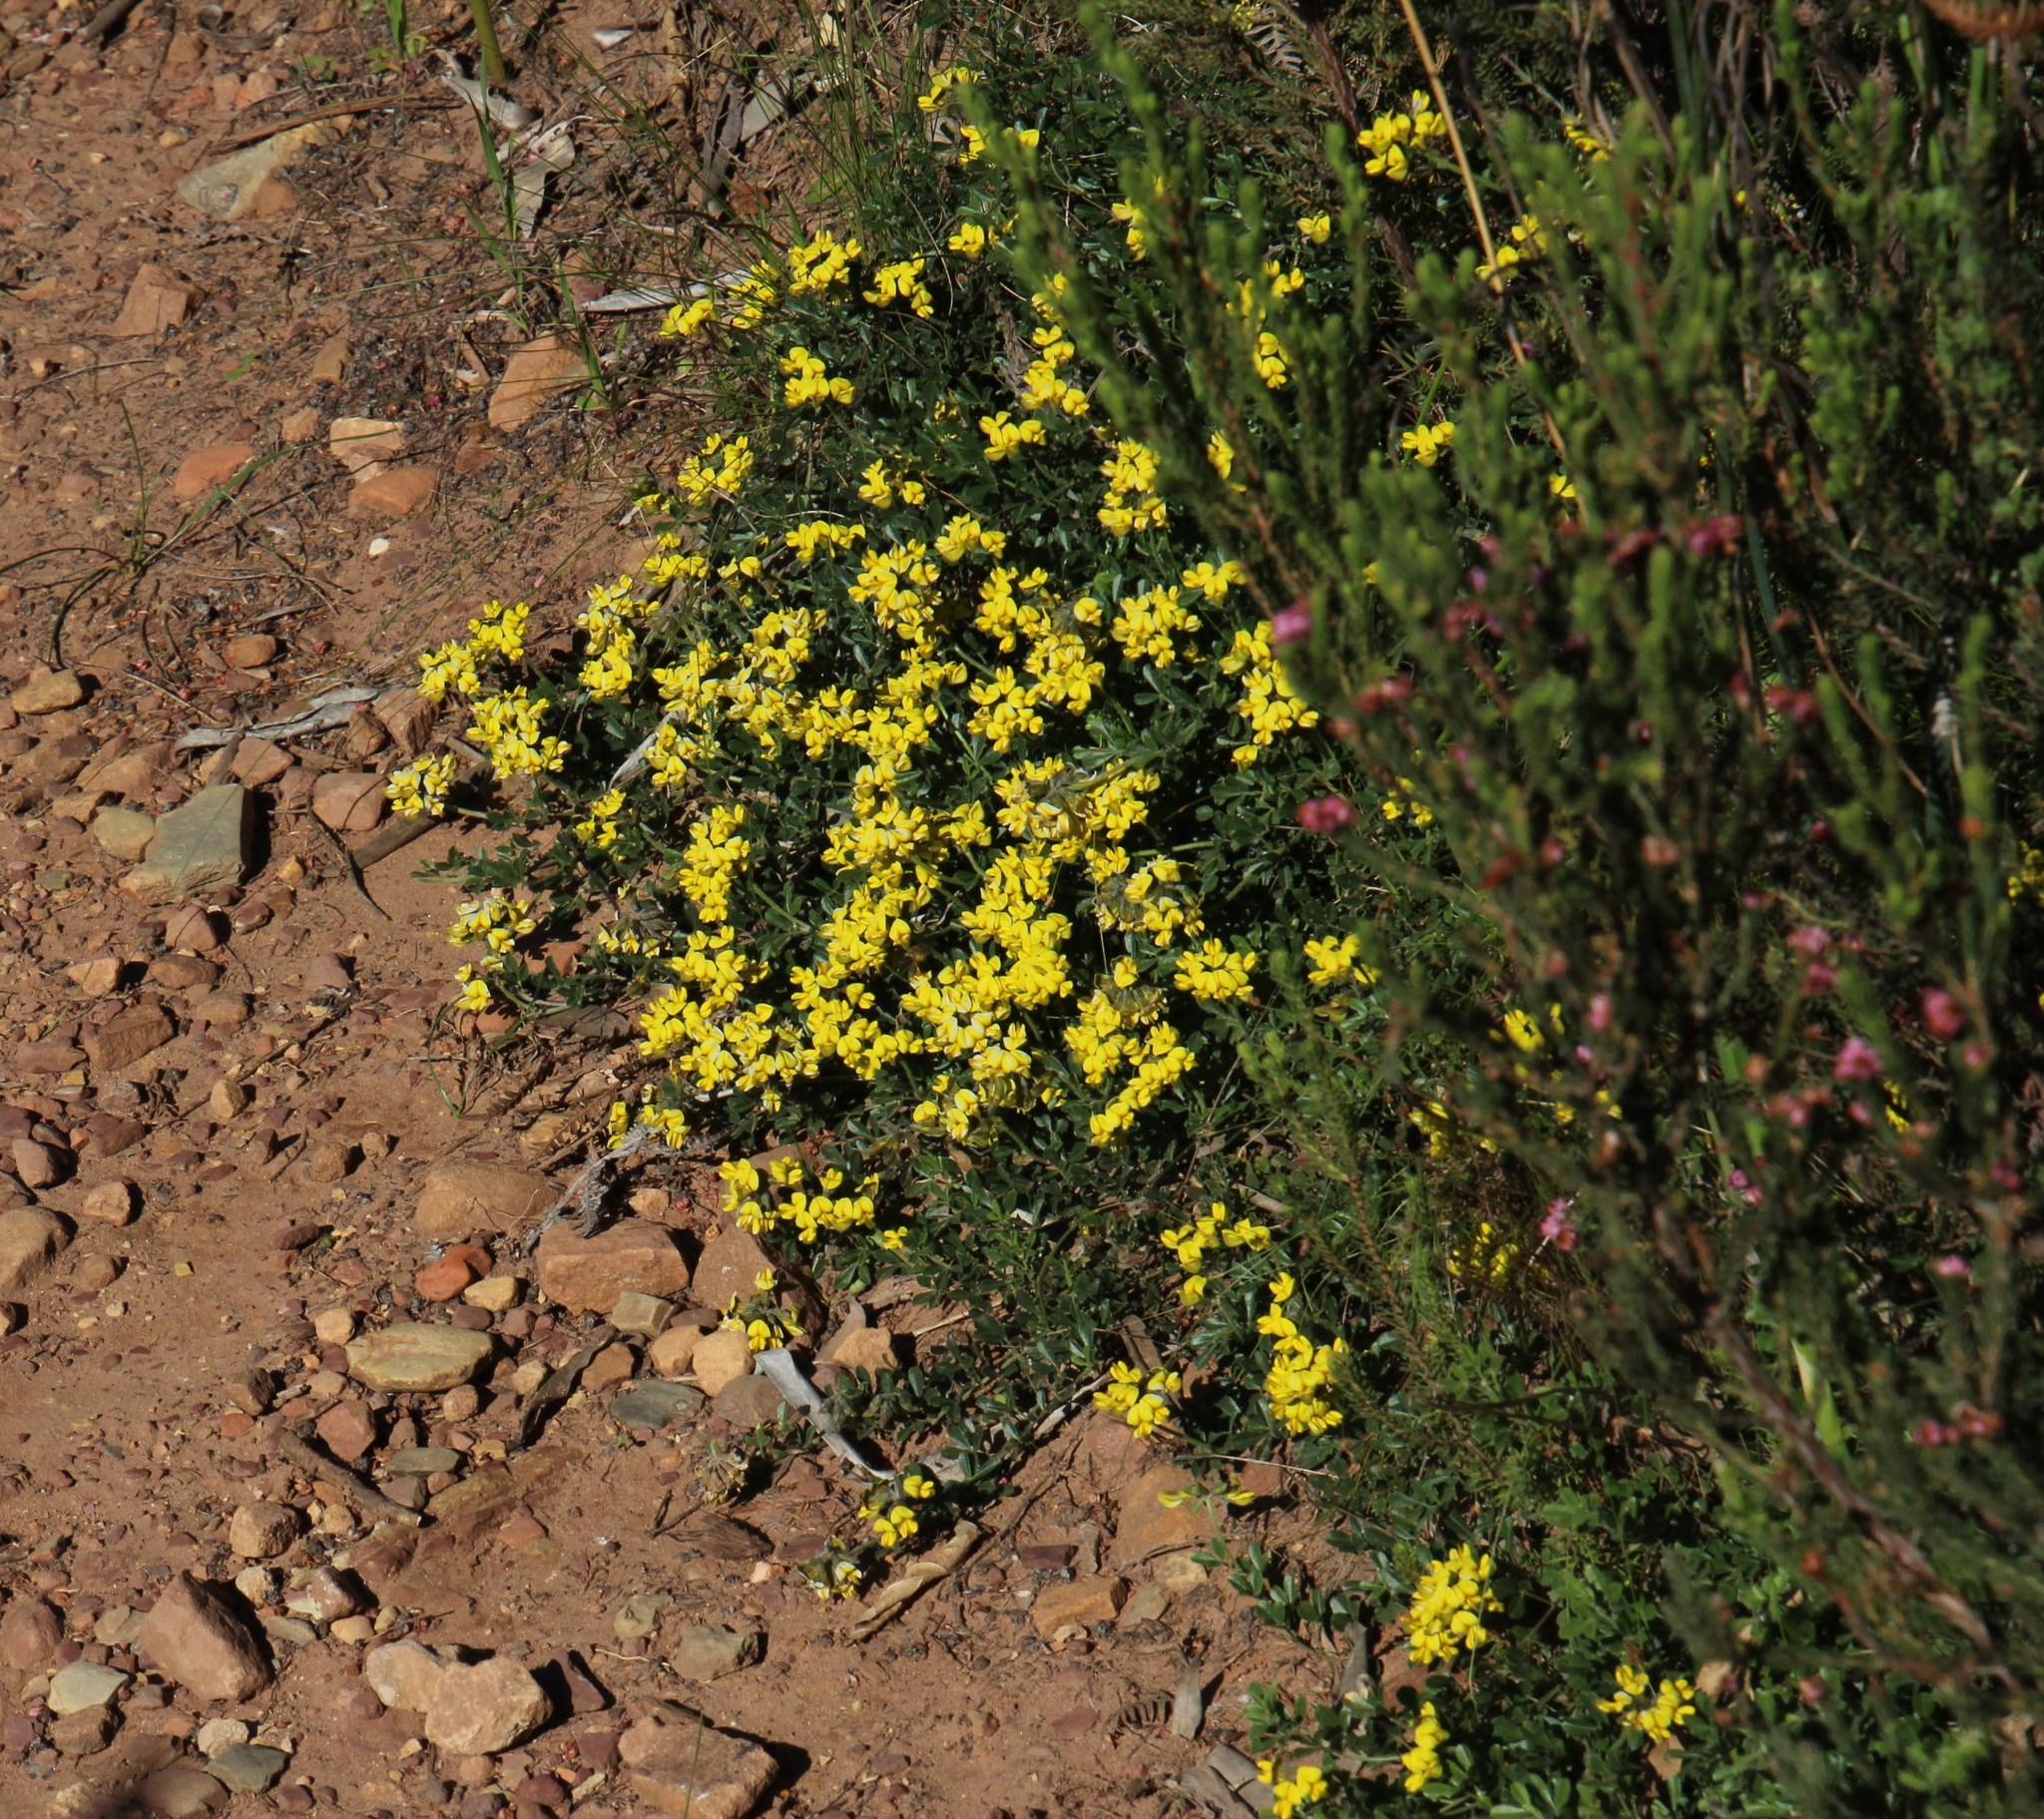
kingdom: Plantae
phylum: Tracheophyta
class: Magnoliopsida
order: Fabales
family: Fabaceae
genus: Lotononis
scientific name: Lotononis umbellata
